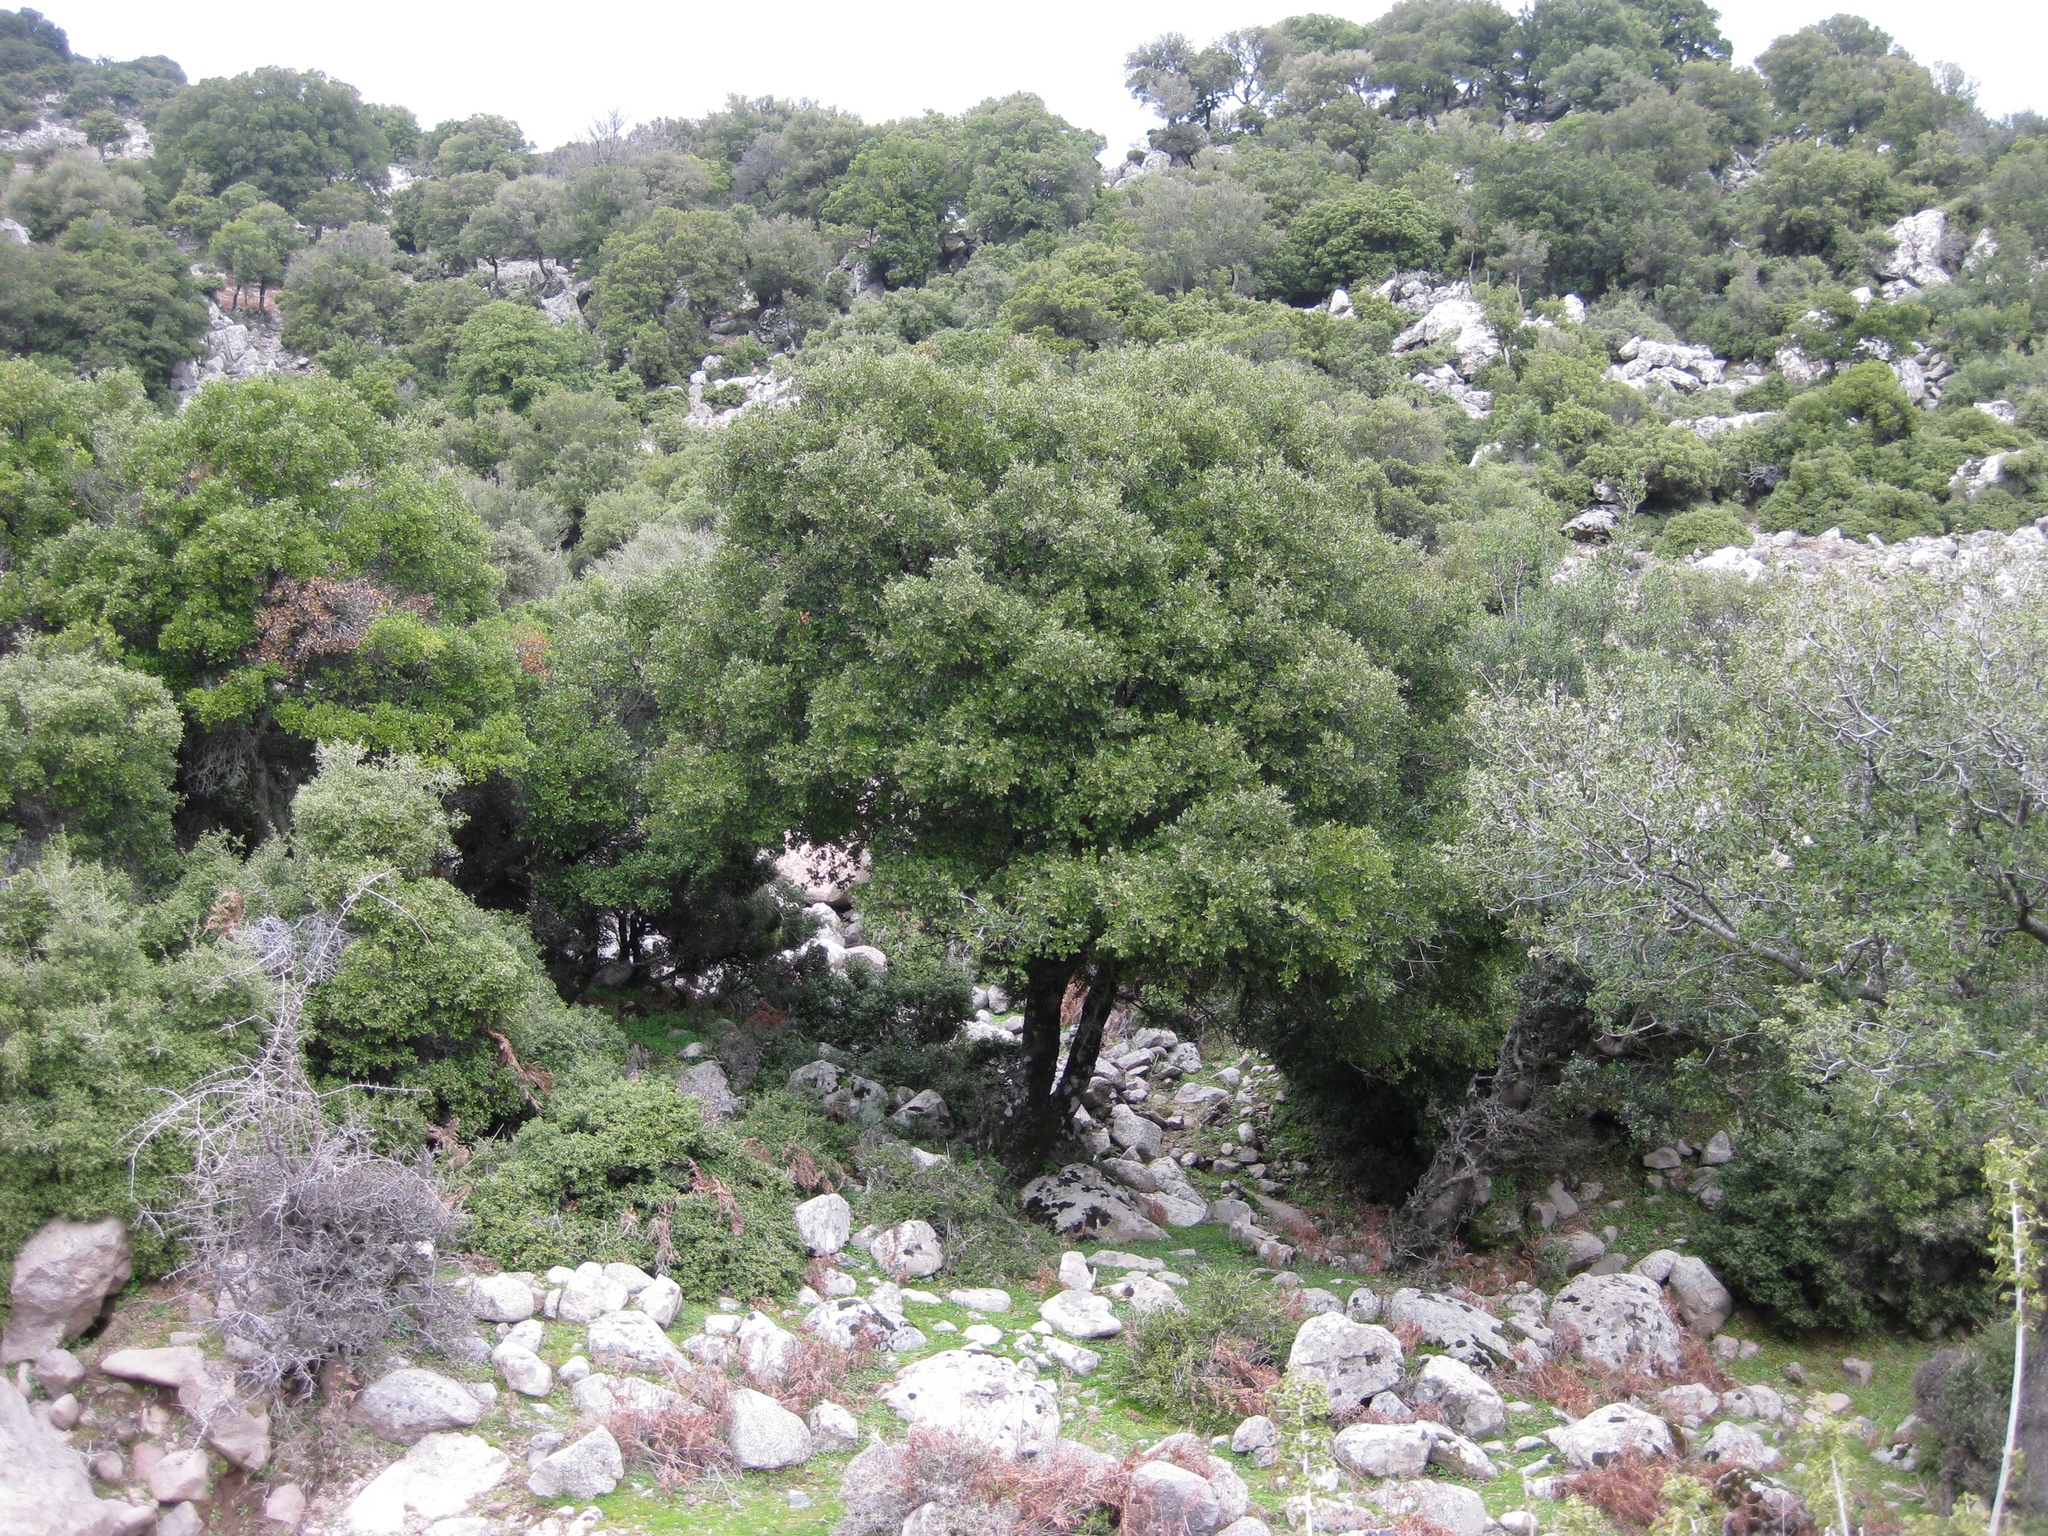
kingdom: Plantae
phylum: Tracheophyta
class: Magnoliopsida
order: Fagales
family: Fagaceae
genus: Quercus
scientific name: Quercus coccifera
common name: Kermes oak
